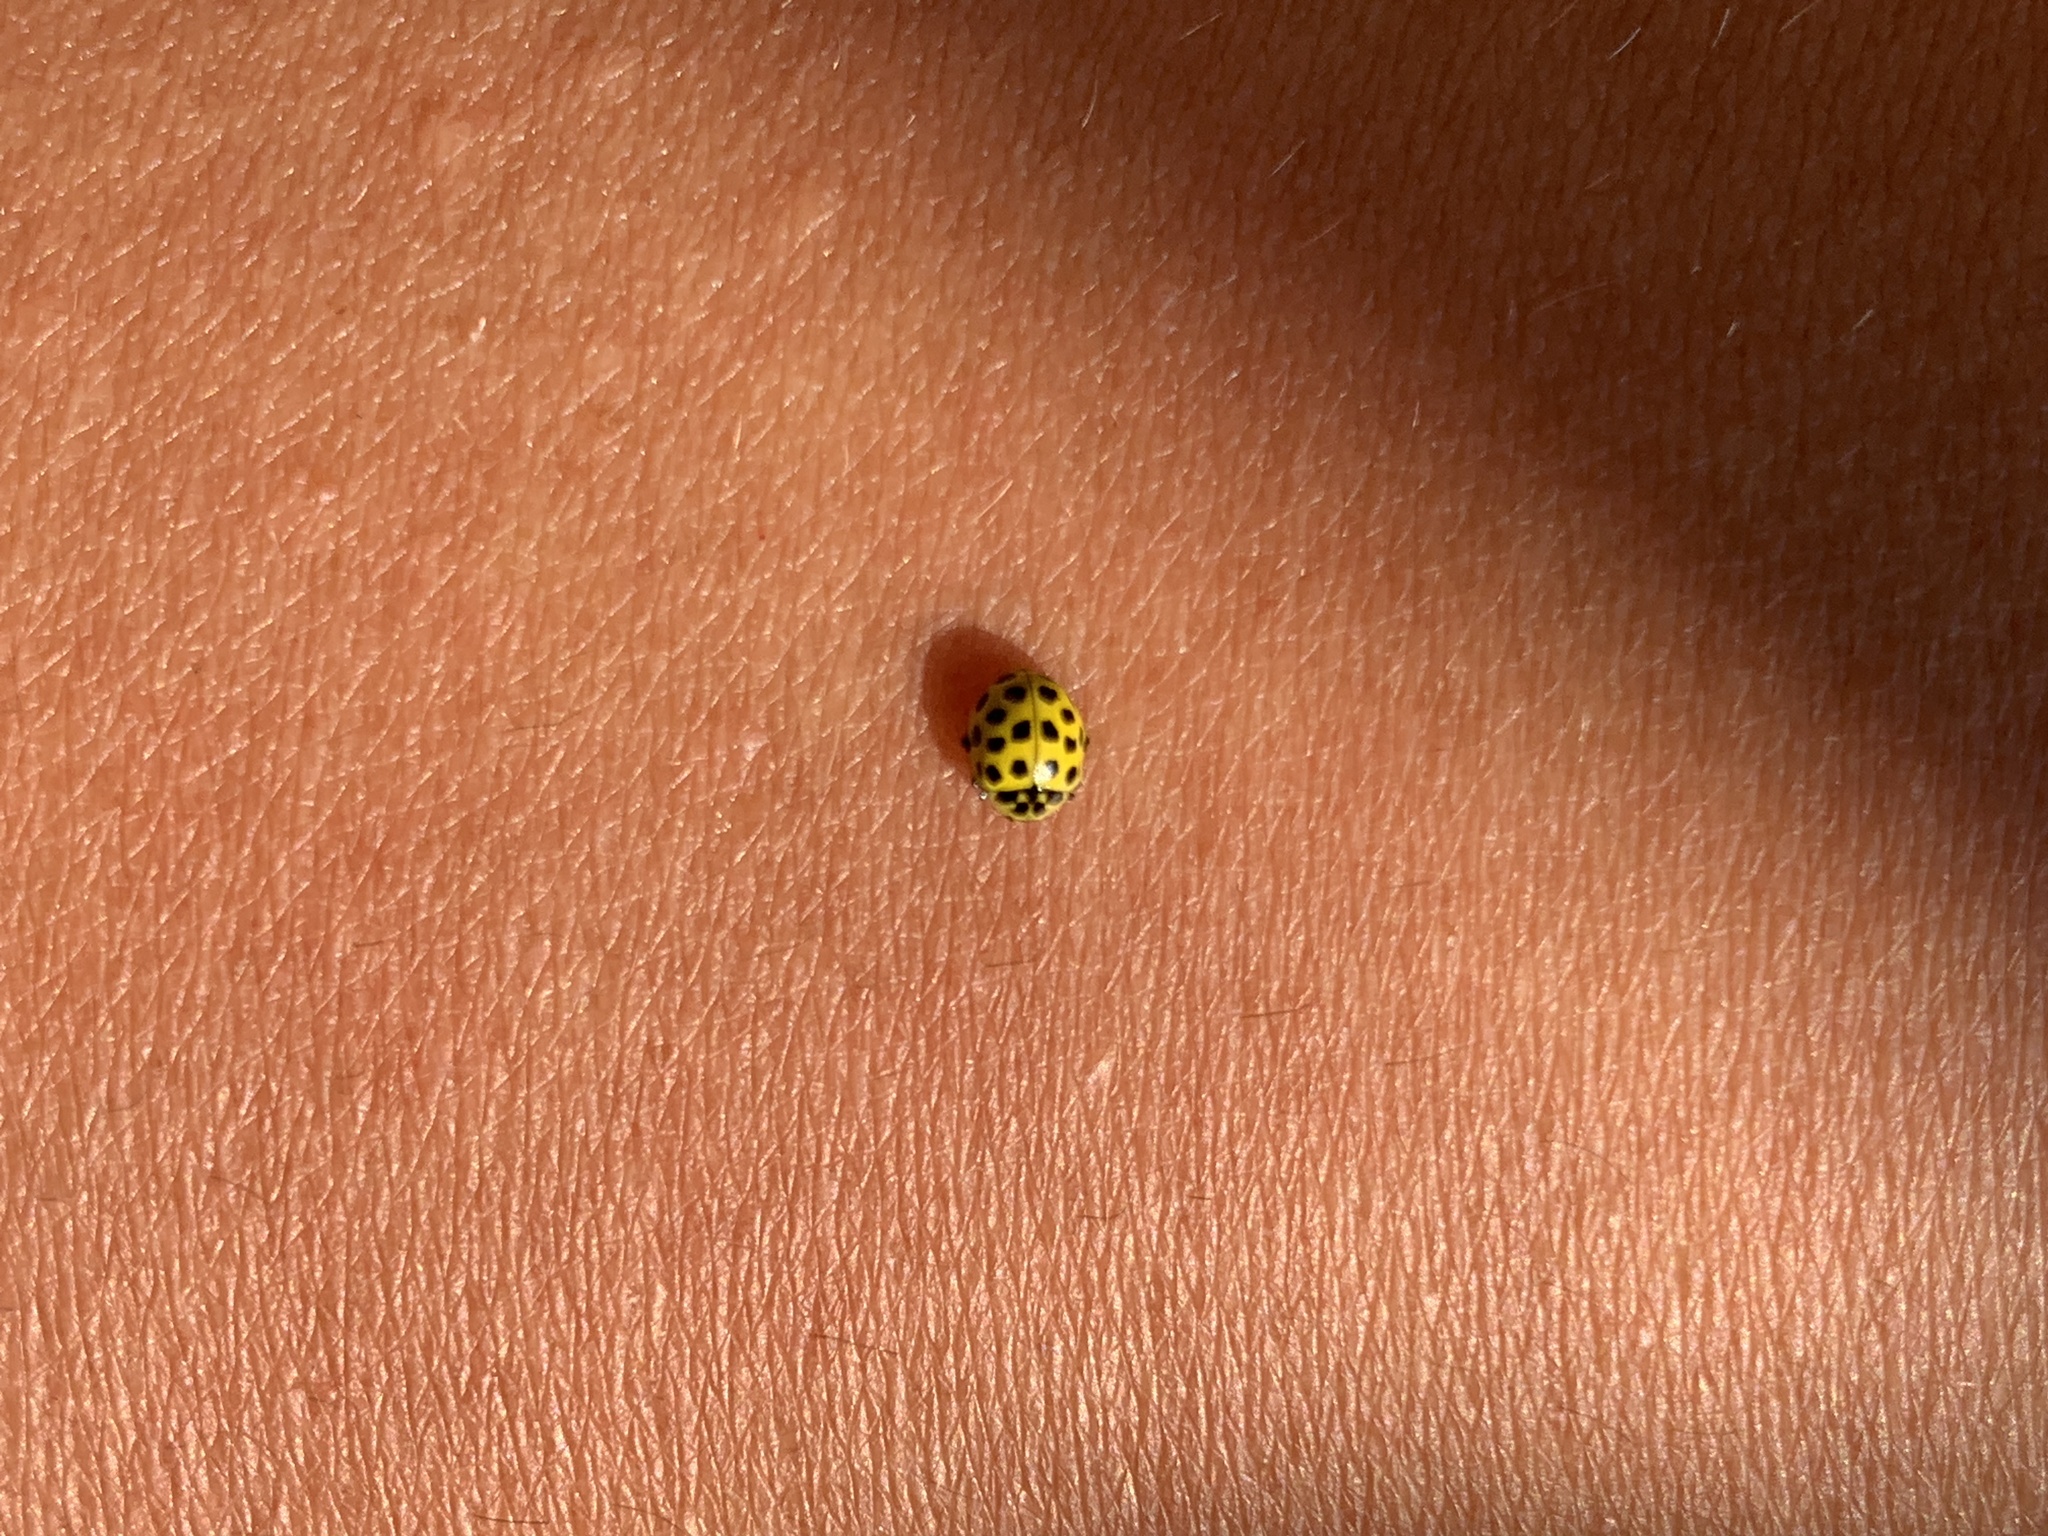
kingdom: Animalia
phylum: Arthropoda
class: Insecta
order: Coleoptera
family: Coccinellidae
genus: Psyllobora
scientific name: Psyllobora vigintiduopunctata
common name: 22-spot ladybird
